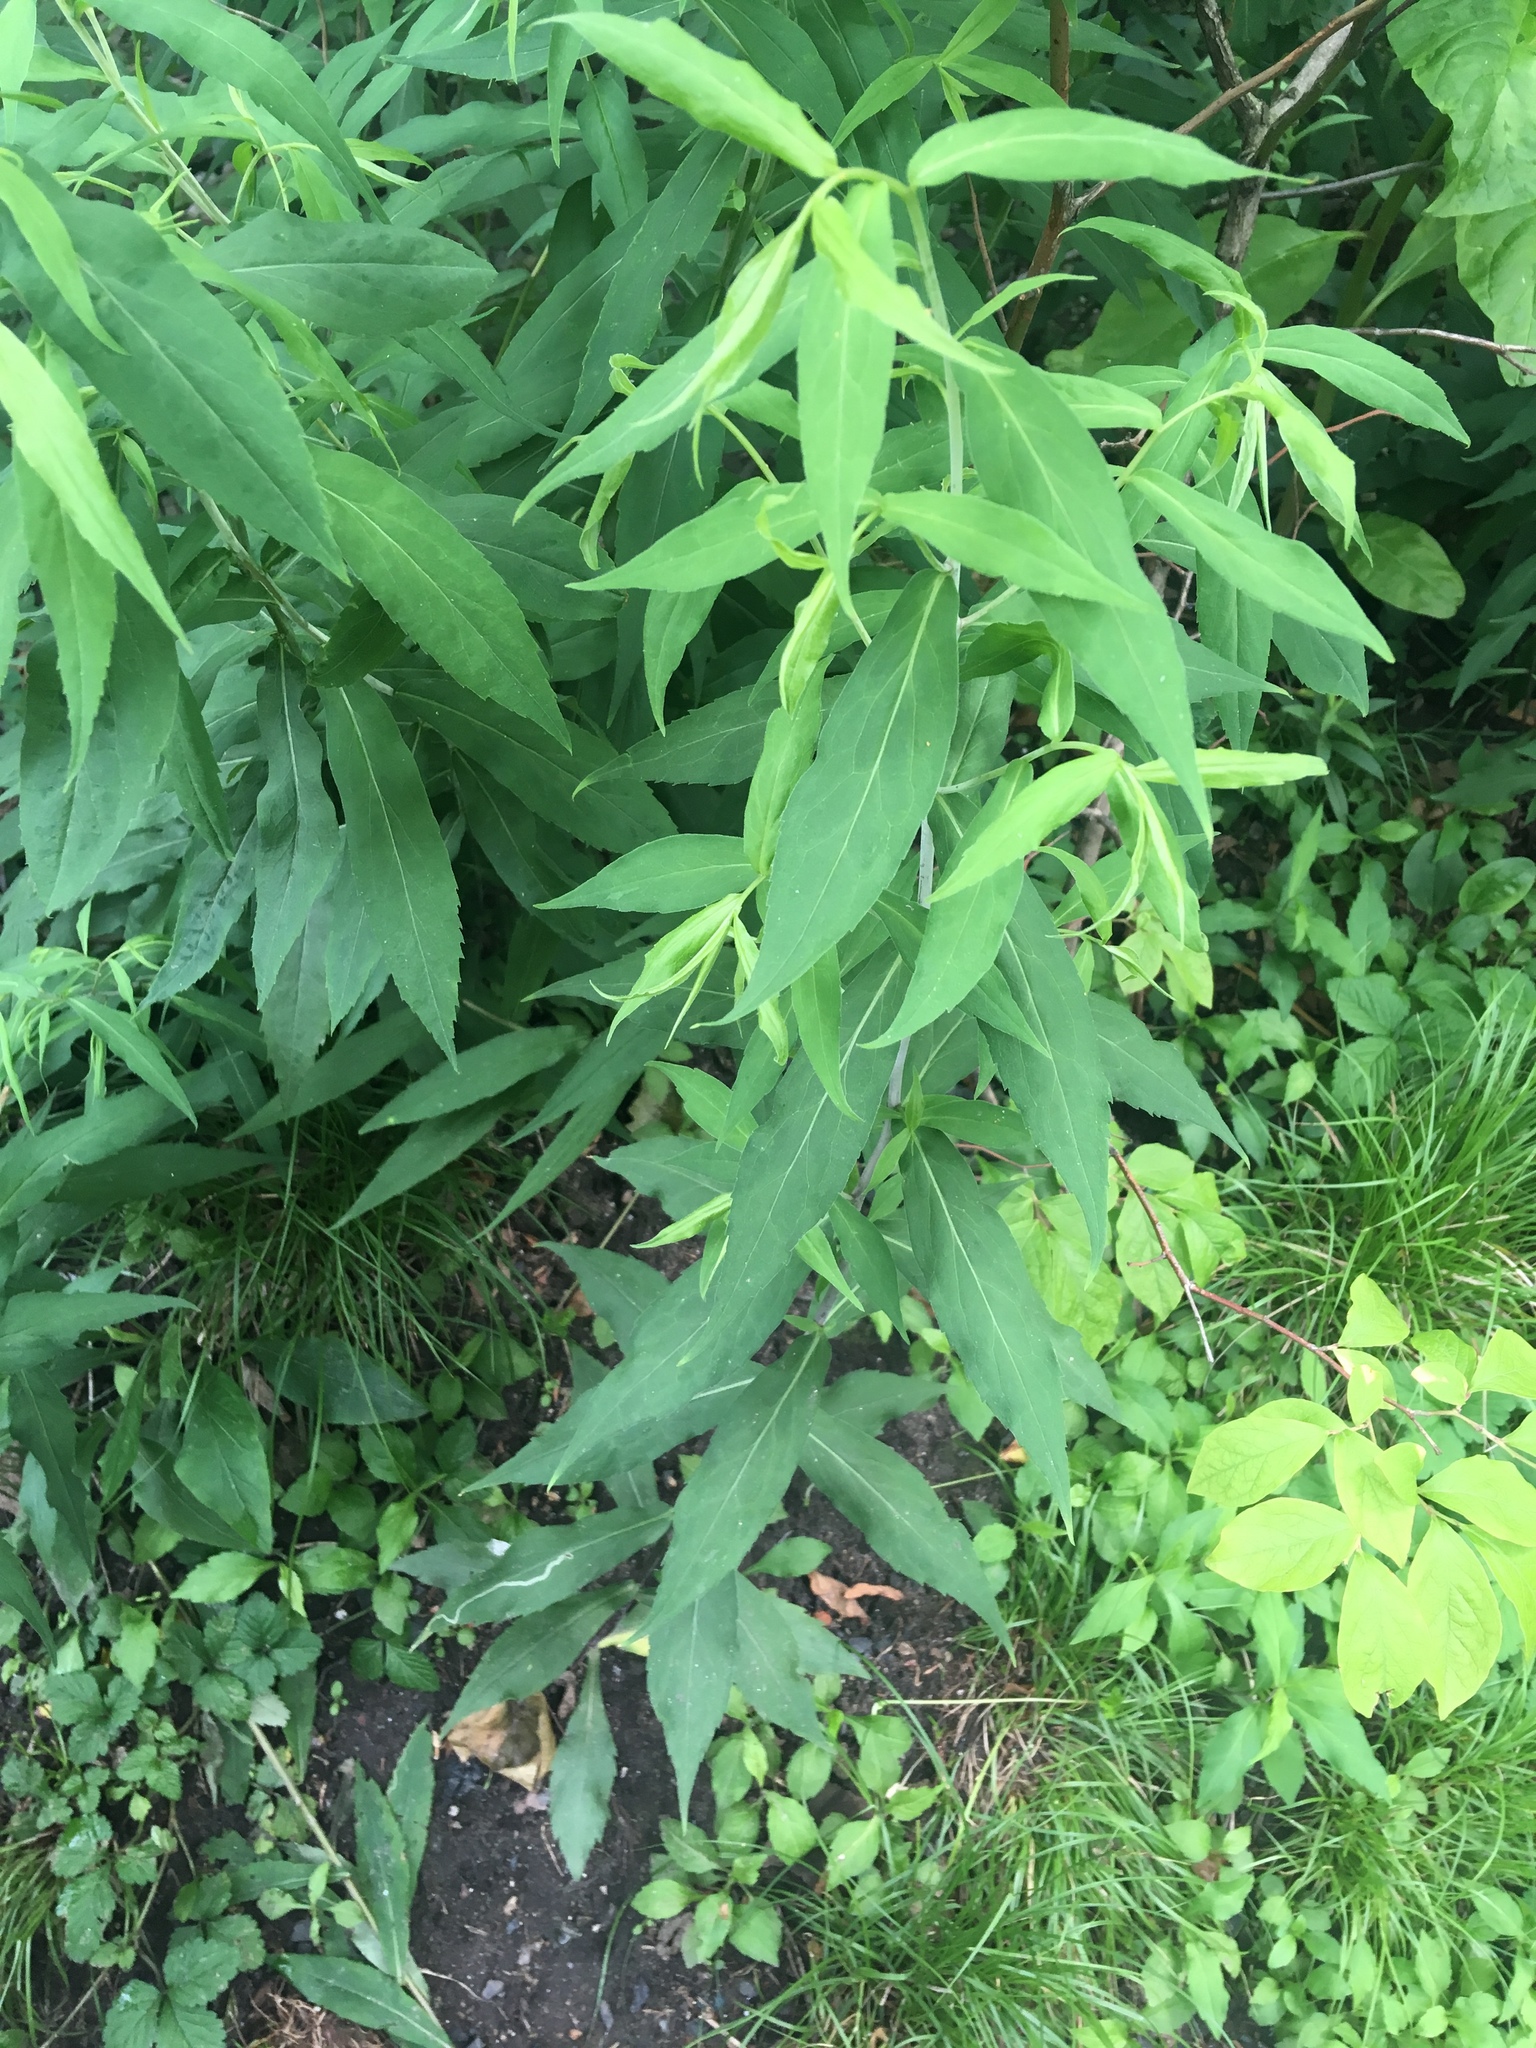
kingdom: Plantae
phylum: Tracheophyta
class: Magnoliopsida
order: Asterales
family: Asteraceae
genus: Solidago
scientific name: Solidago caesia
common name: Woodland goldenrod
